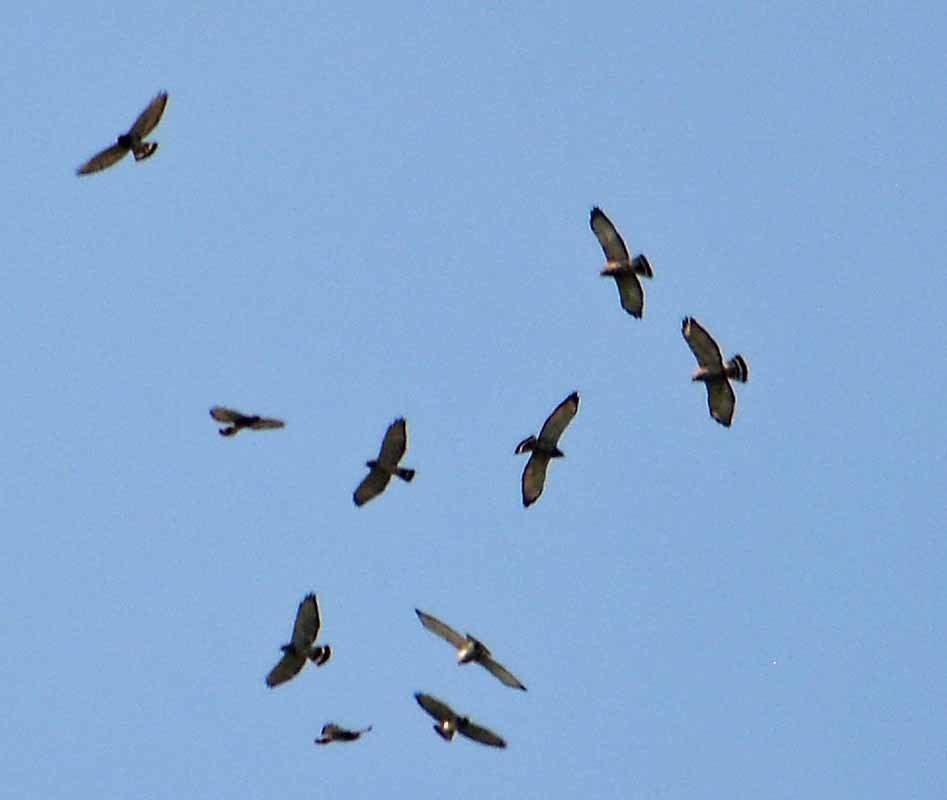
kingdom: Animalia
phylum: Chordata
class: Aves
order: Accipitriformes
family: Accipitridae
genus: Buteo
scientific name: Buteo platypterus
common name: Broad-winged hawk
